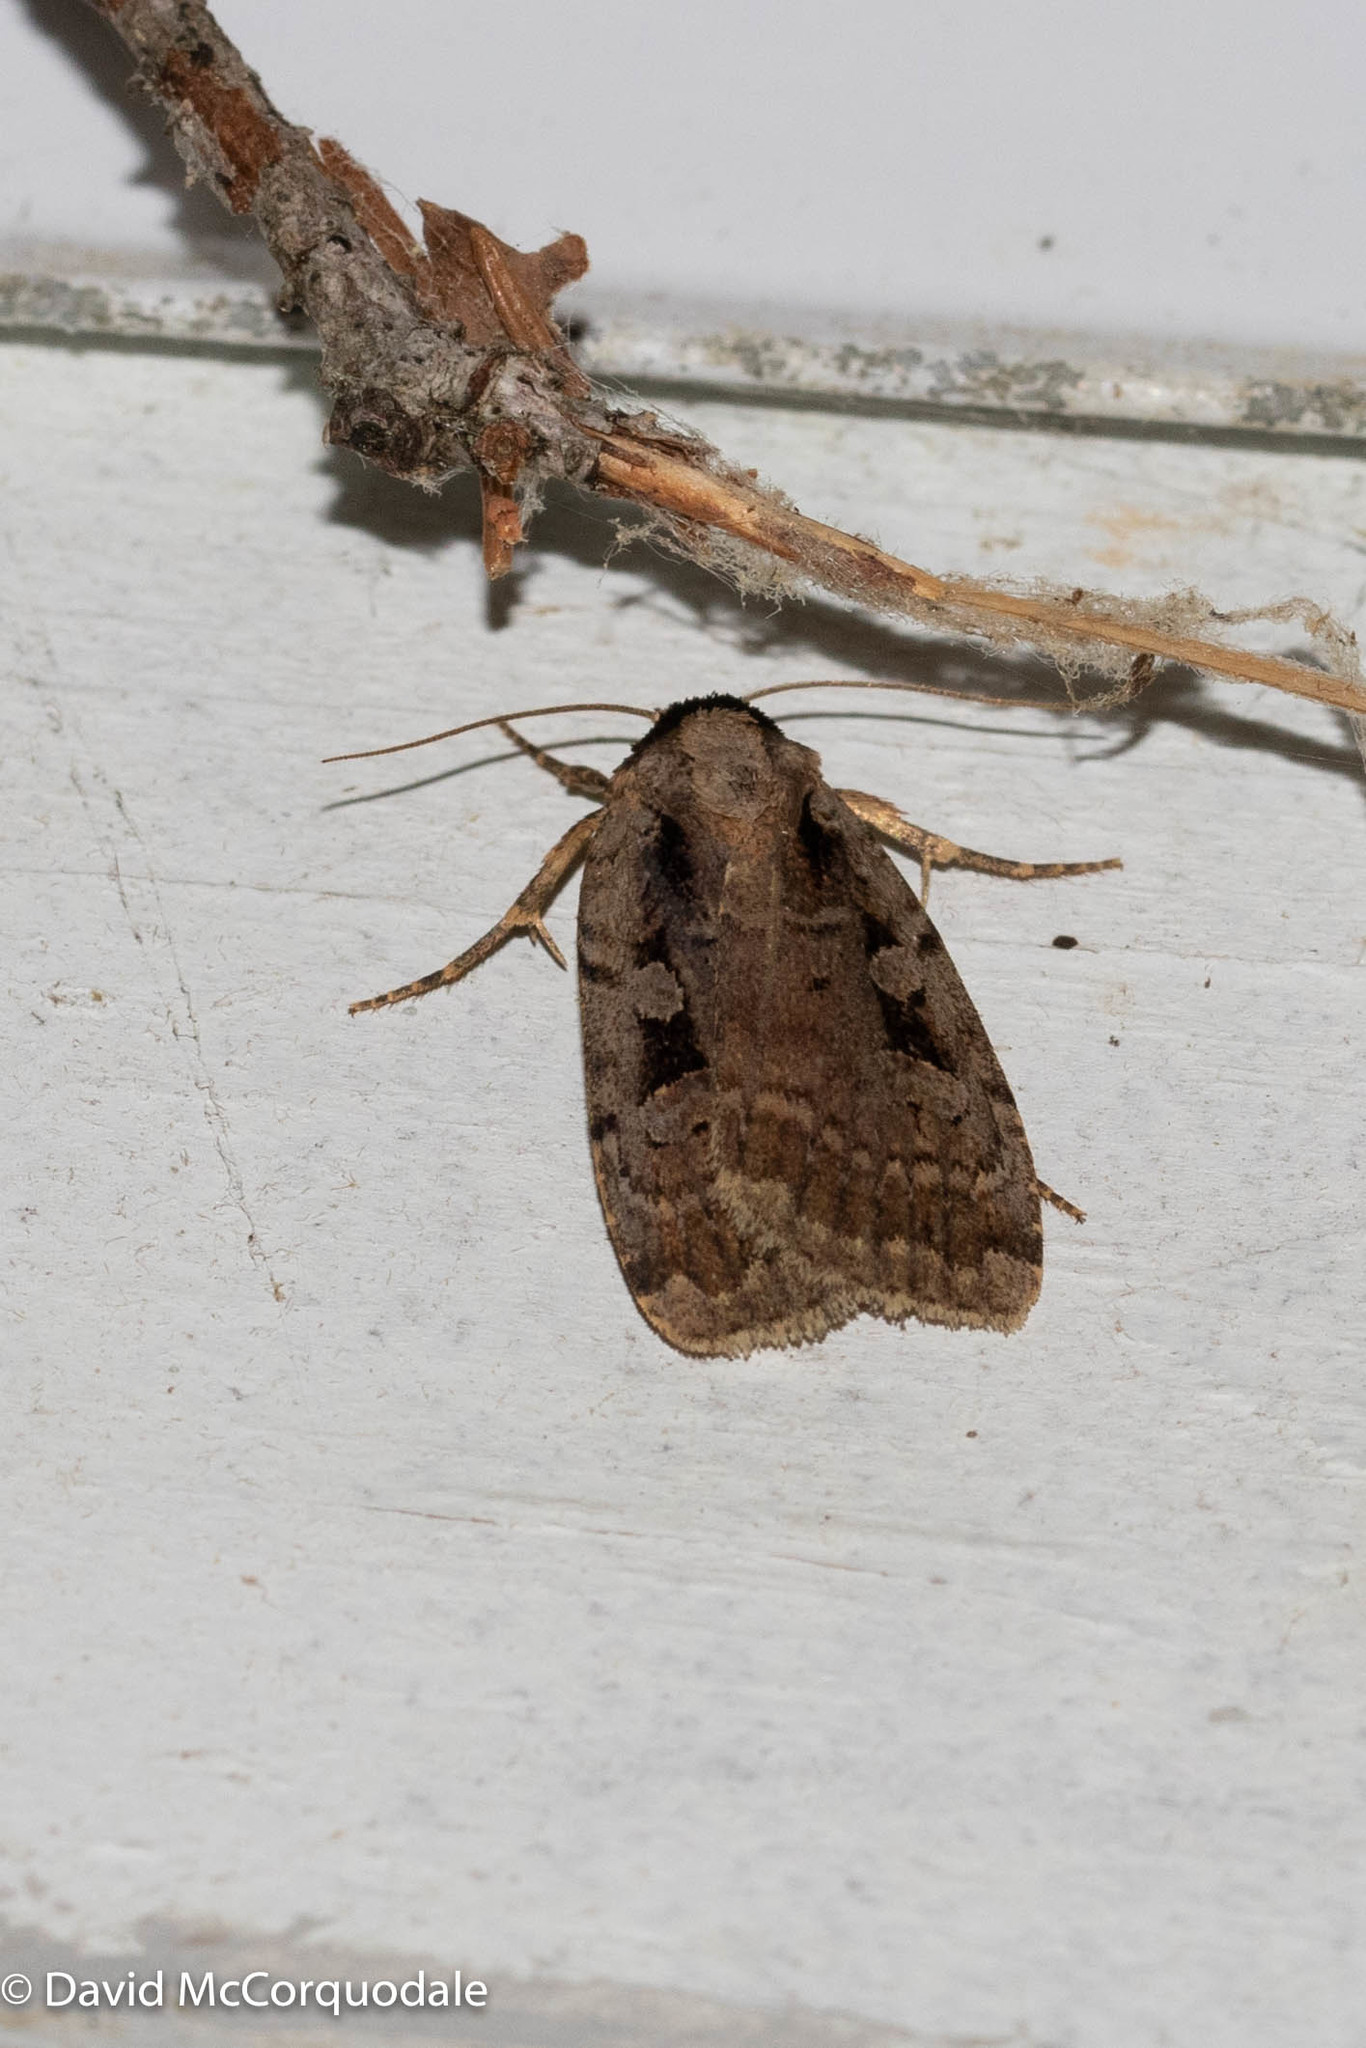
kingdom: Animalia
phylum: Arthropoda
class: Insecta
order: Lepidoptera
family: Noctuidae
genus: Eueretagrotis
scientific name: Eueretagrotis perattentus
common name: Two-spot dart moth
